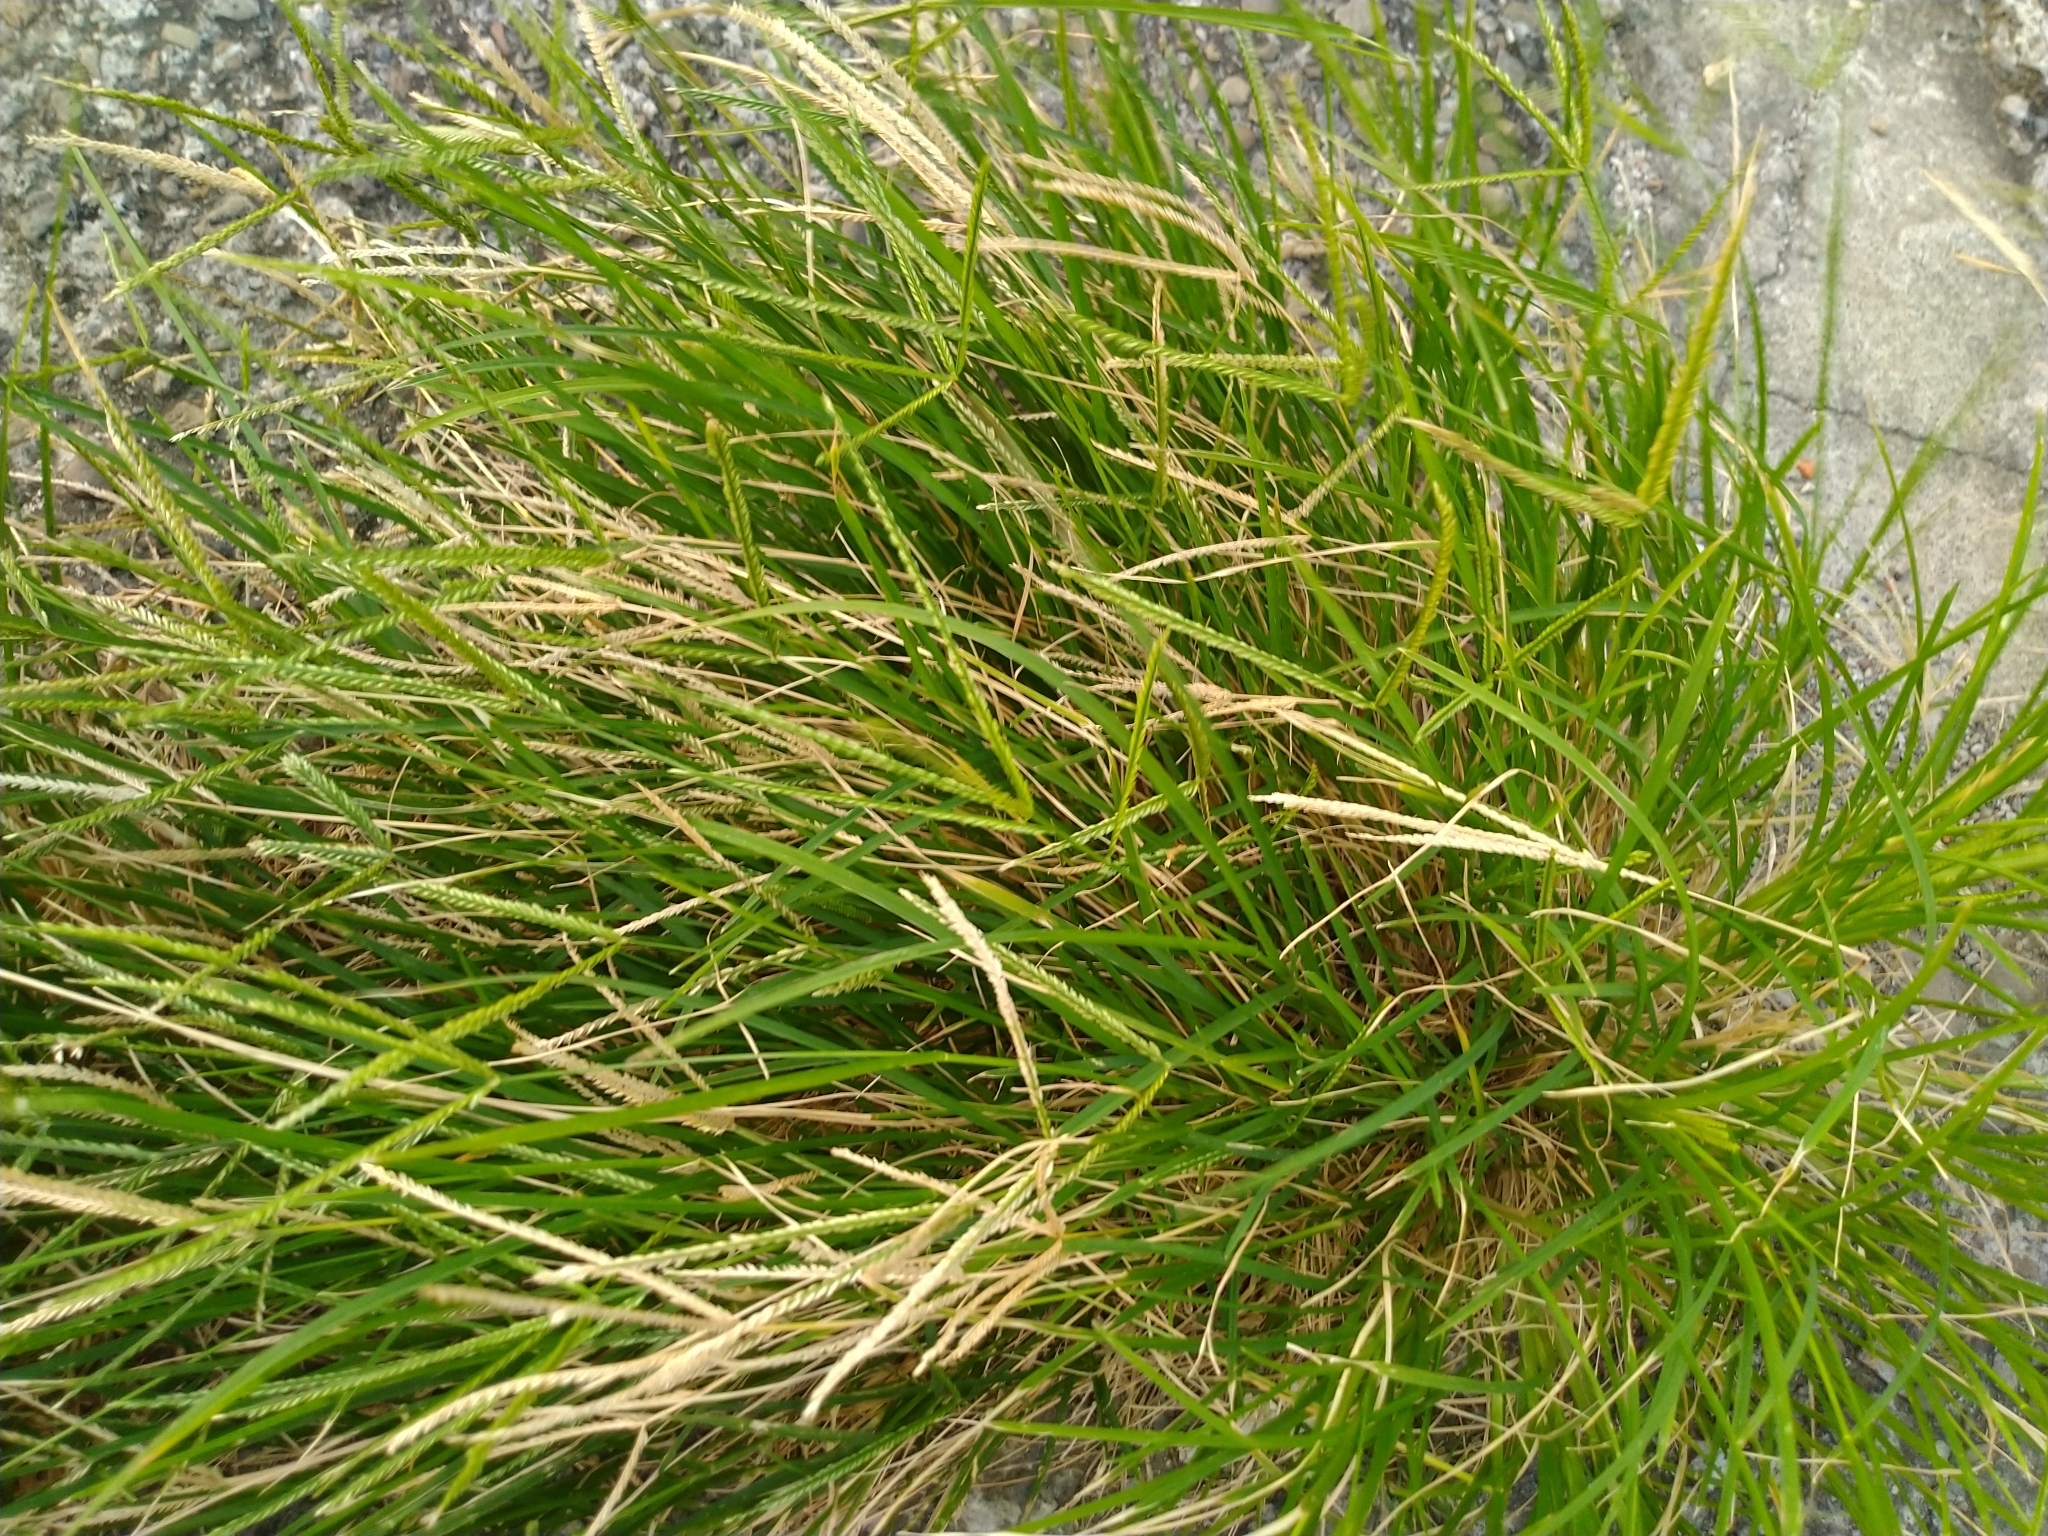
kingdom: Plantae
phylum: Tracheophyta
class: Liliopsida
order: Poales
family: Poaceae
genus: Eleusine
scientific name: Eleusine indica
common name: Yard-grass
